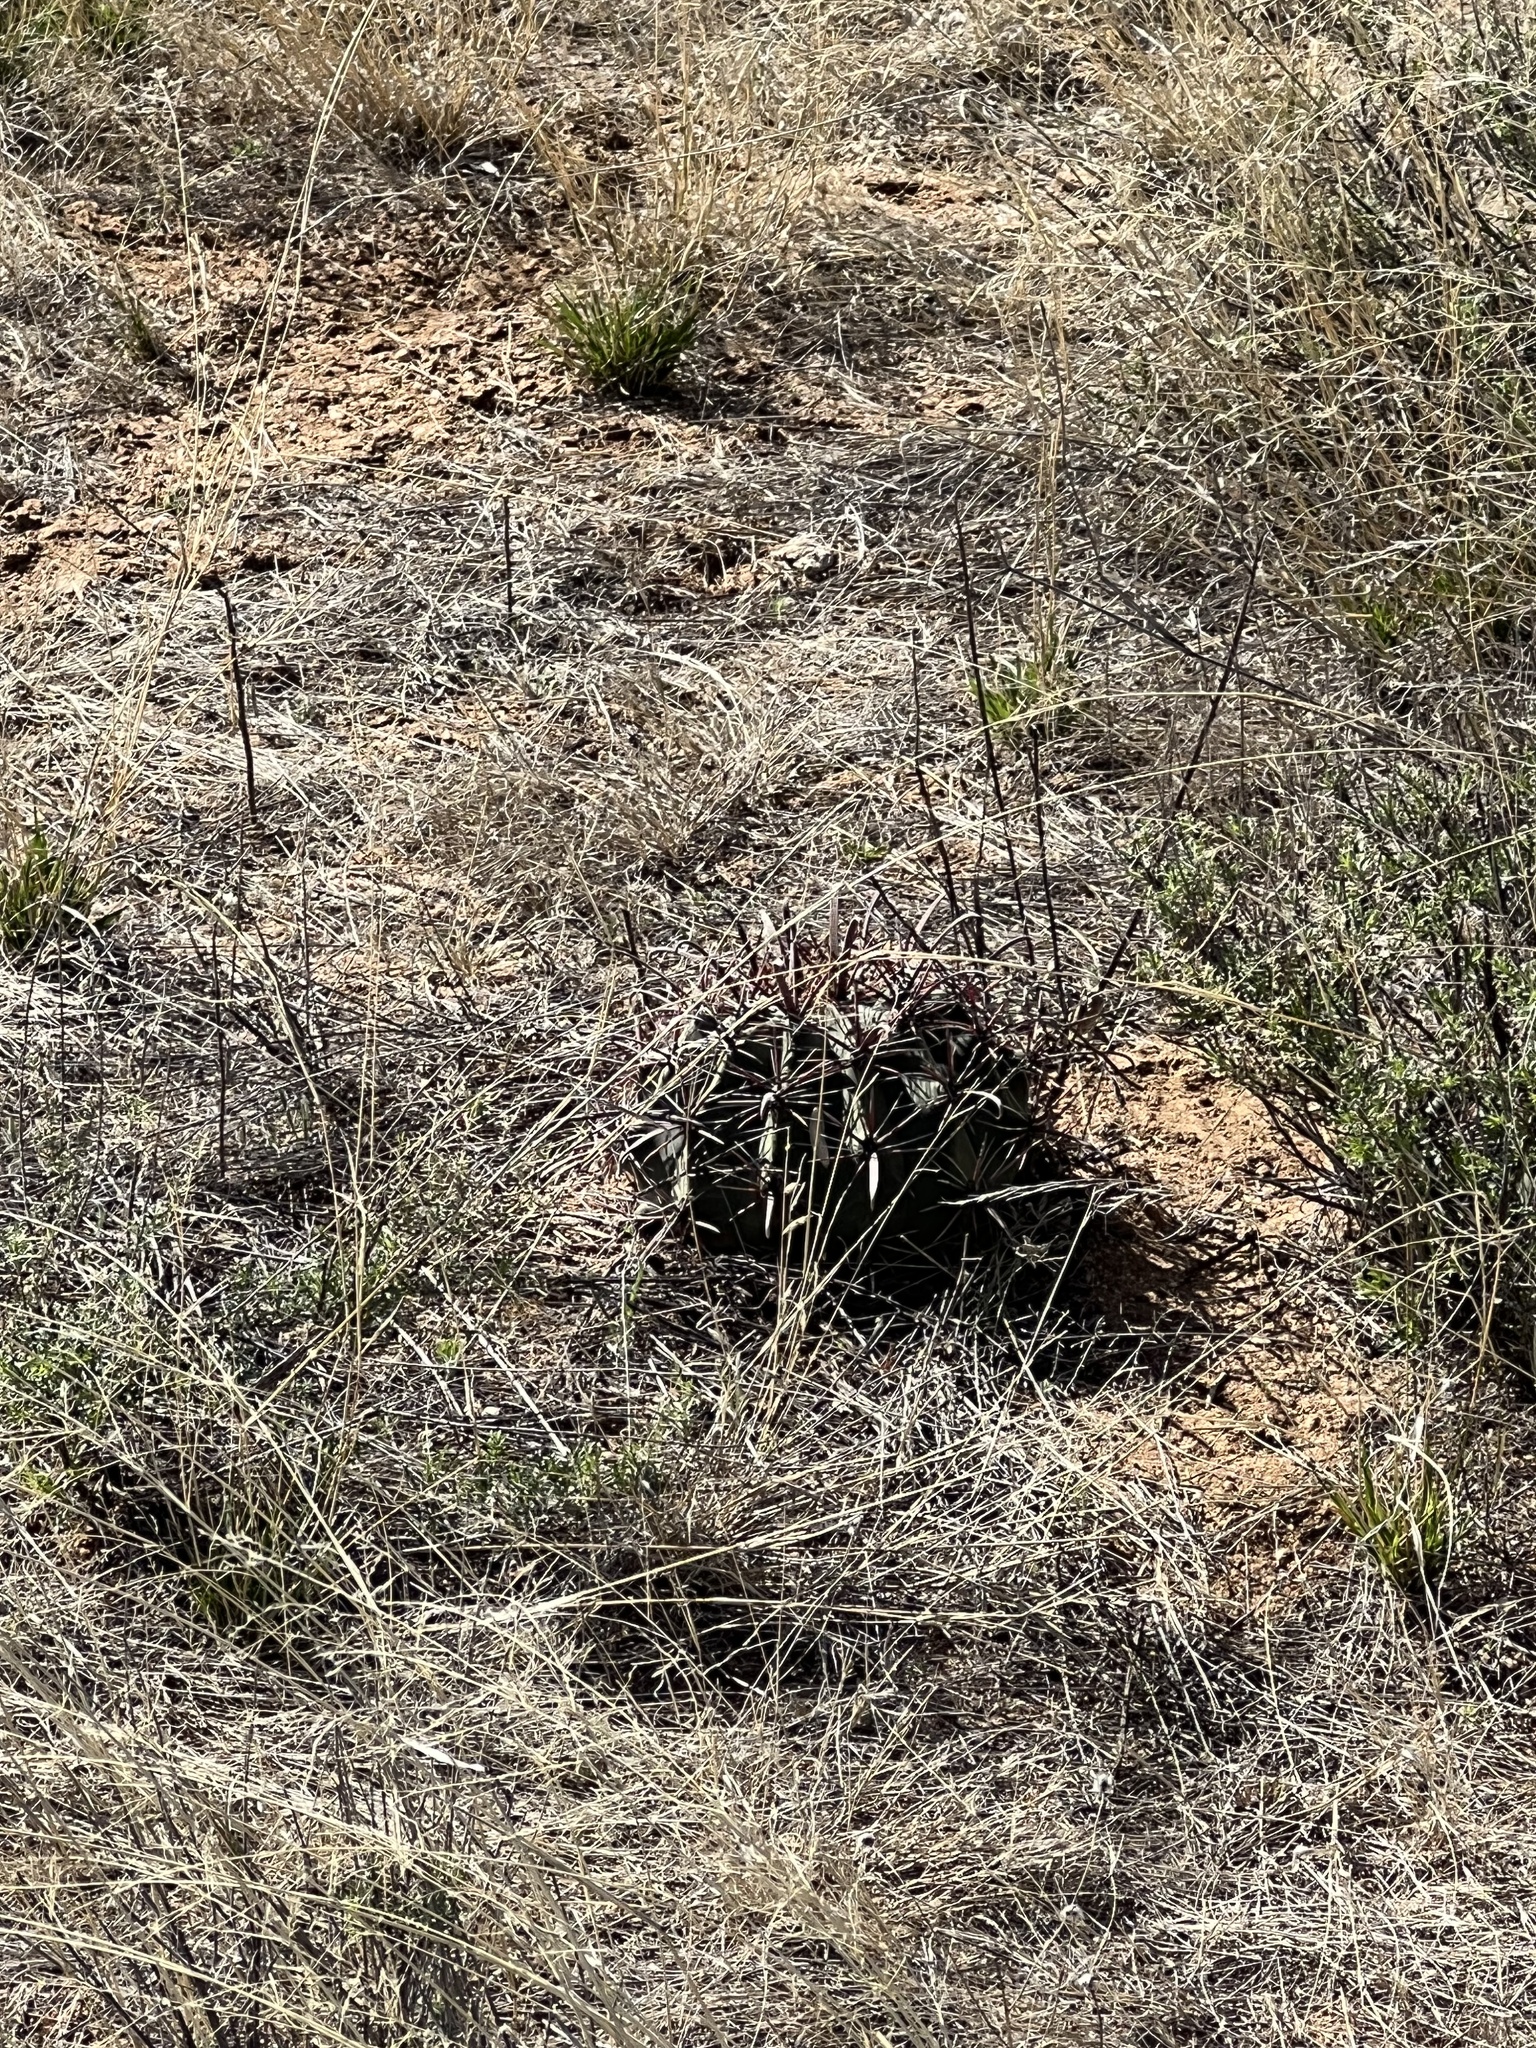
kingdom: Plantae
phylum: Tracheophyta
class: Magnoliopsida
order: Caryophyllales
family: Cactaceae
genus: Ferocactus
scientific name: Ferocactus wislizeni
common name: Candy barrel cactus
